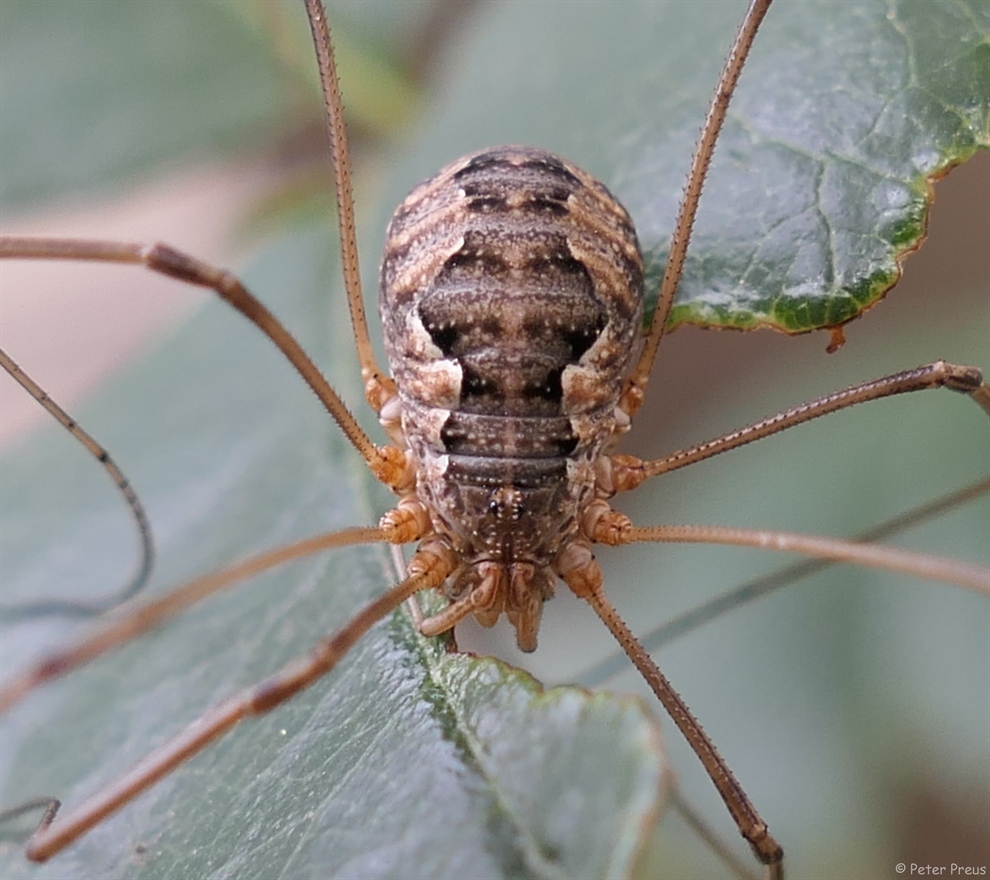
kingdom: Animalia
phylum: Arthropoda
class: Arachnida
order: Opiliones
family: Phalangiidae
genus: Phalangium
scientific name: Phalangium opilio
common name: Daddy longleg
